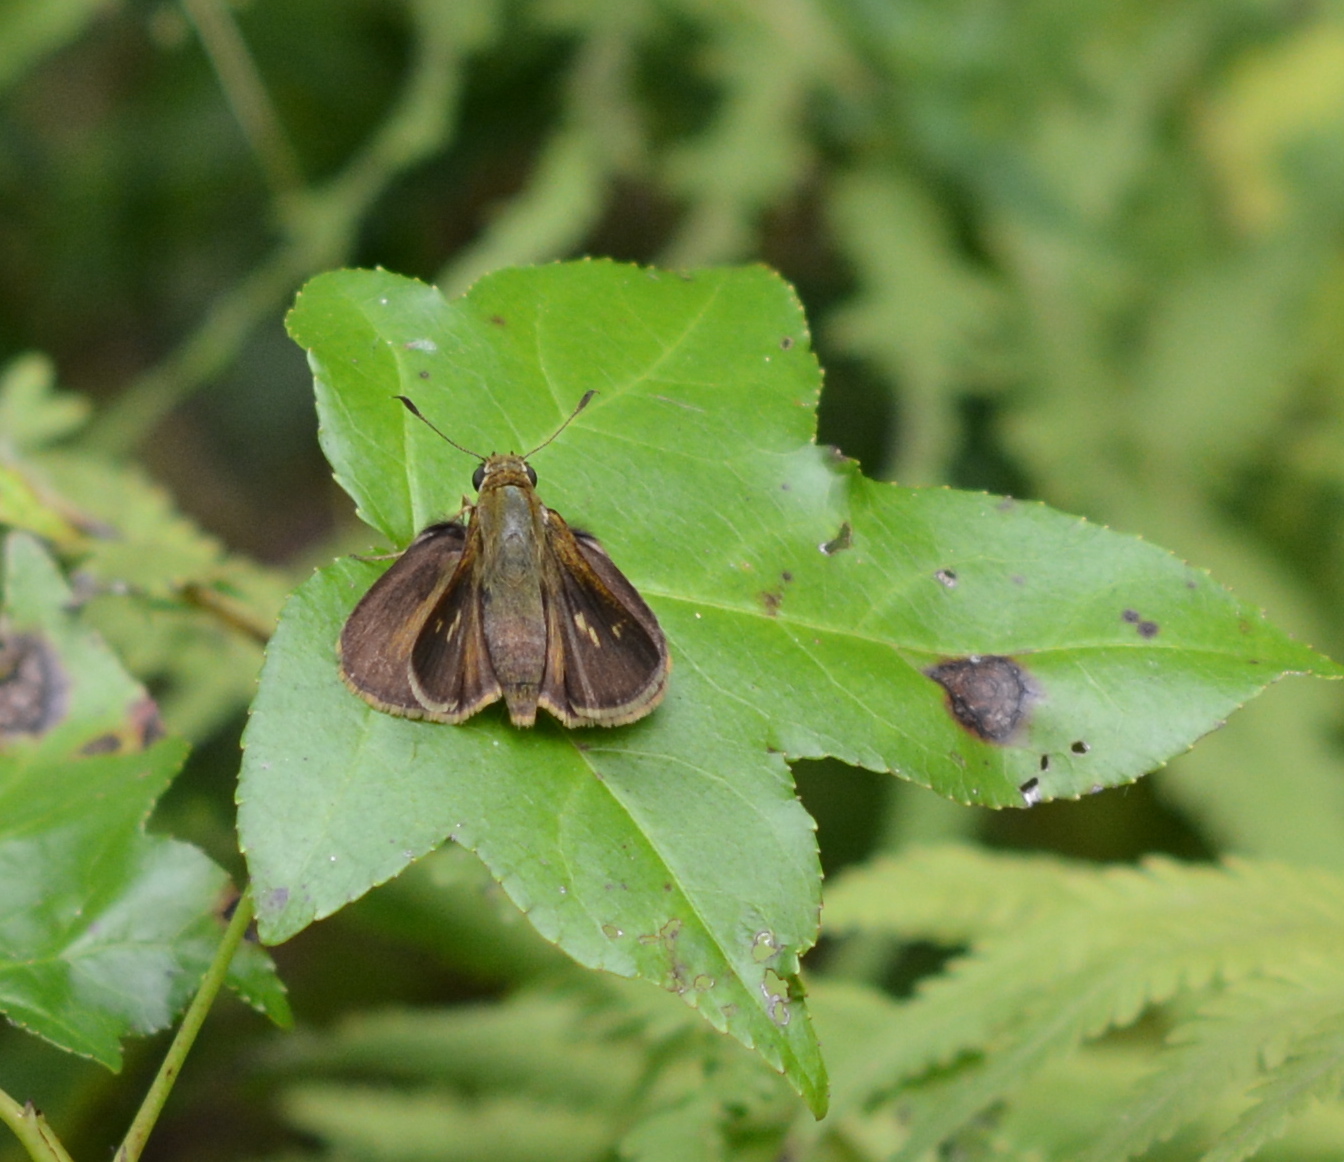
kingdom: Animalia
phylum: Arthropoda
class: Insecta
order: Lepidoptera
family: Hesperiidae
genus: Polites
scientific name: Polites egeremet
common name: Northern broken-dash
